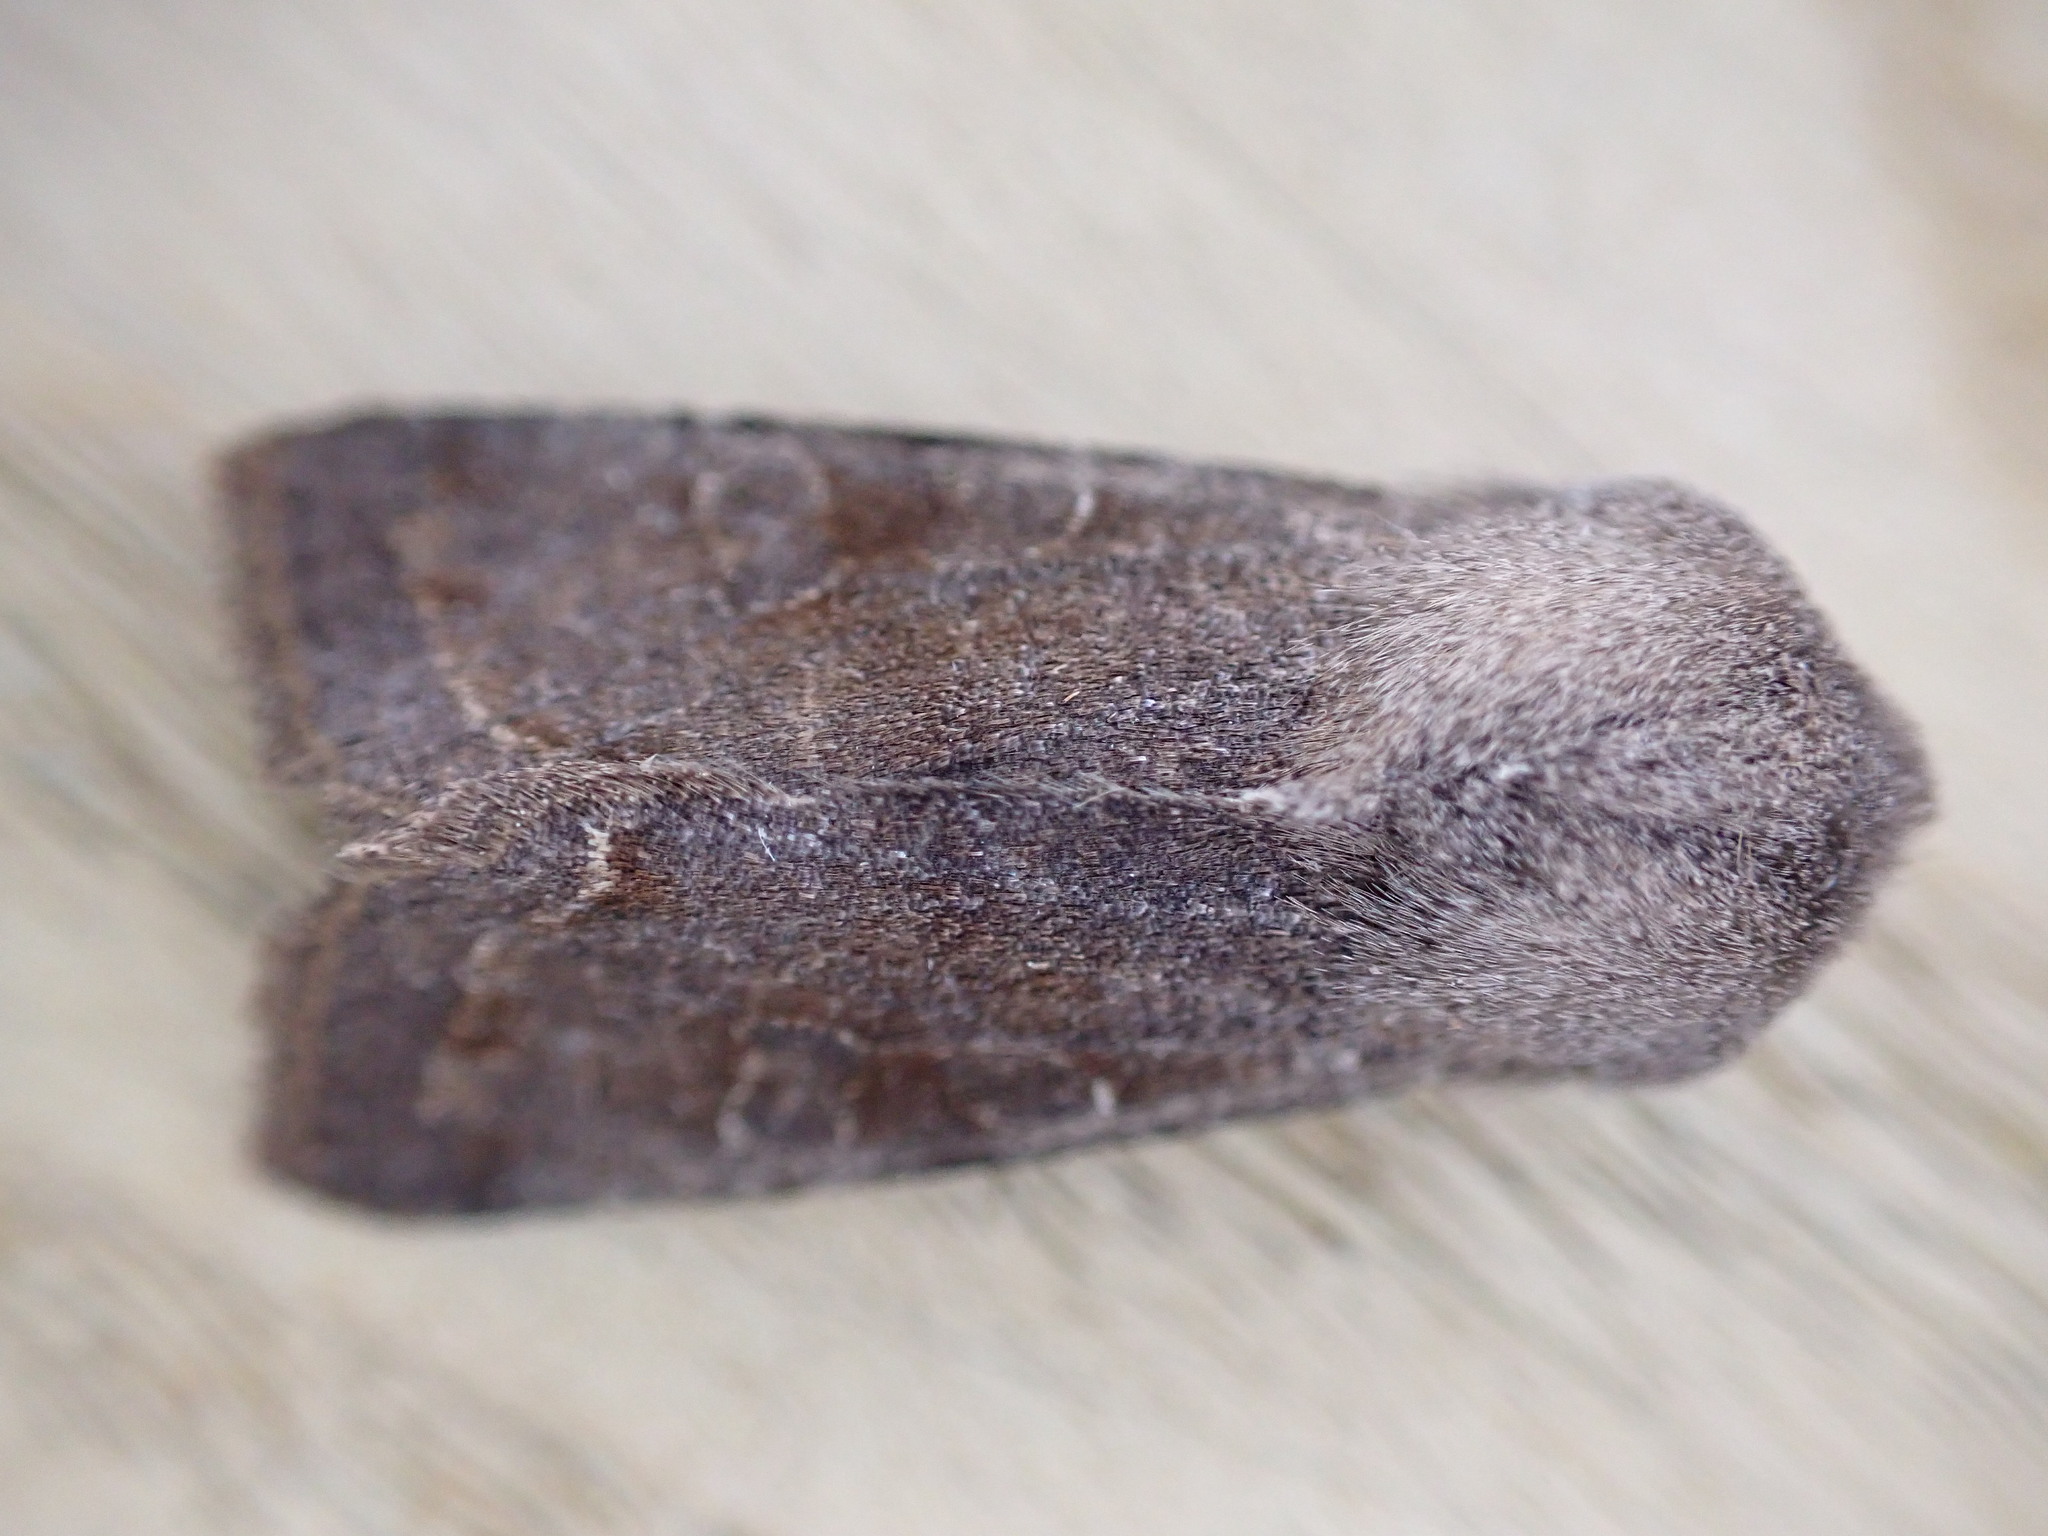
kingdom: Animalia
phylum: Arthropoda
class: Insecta
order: Lepidoptera
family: Noctuidae
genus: Orthosia
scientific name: Orthosia incerta
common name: Clouded drab
